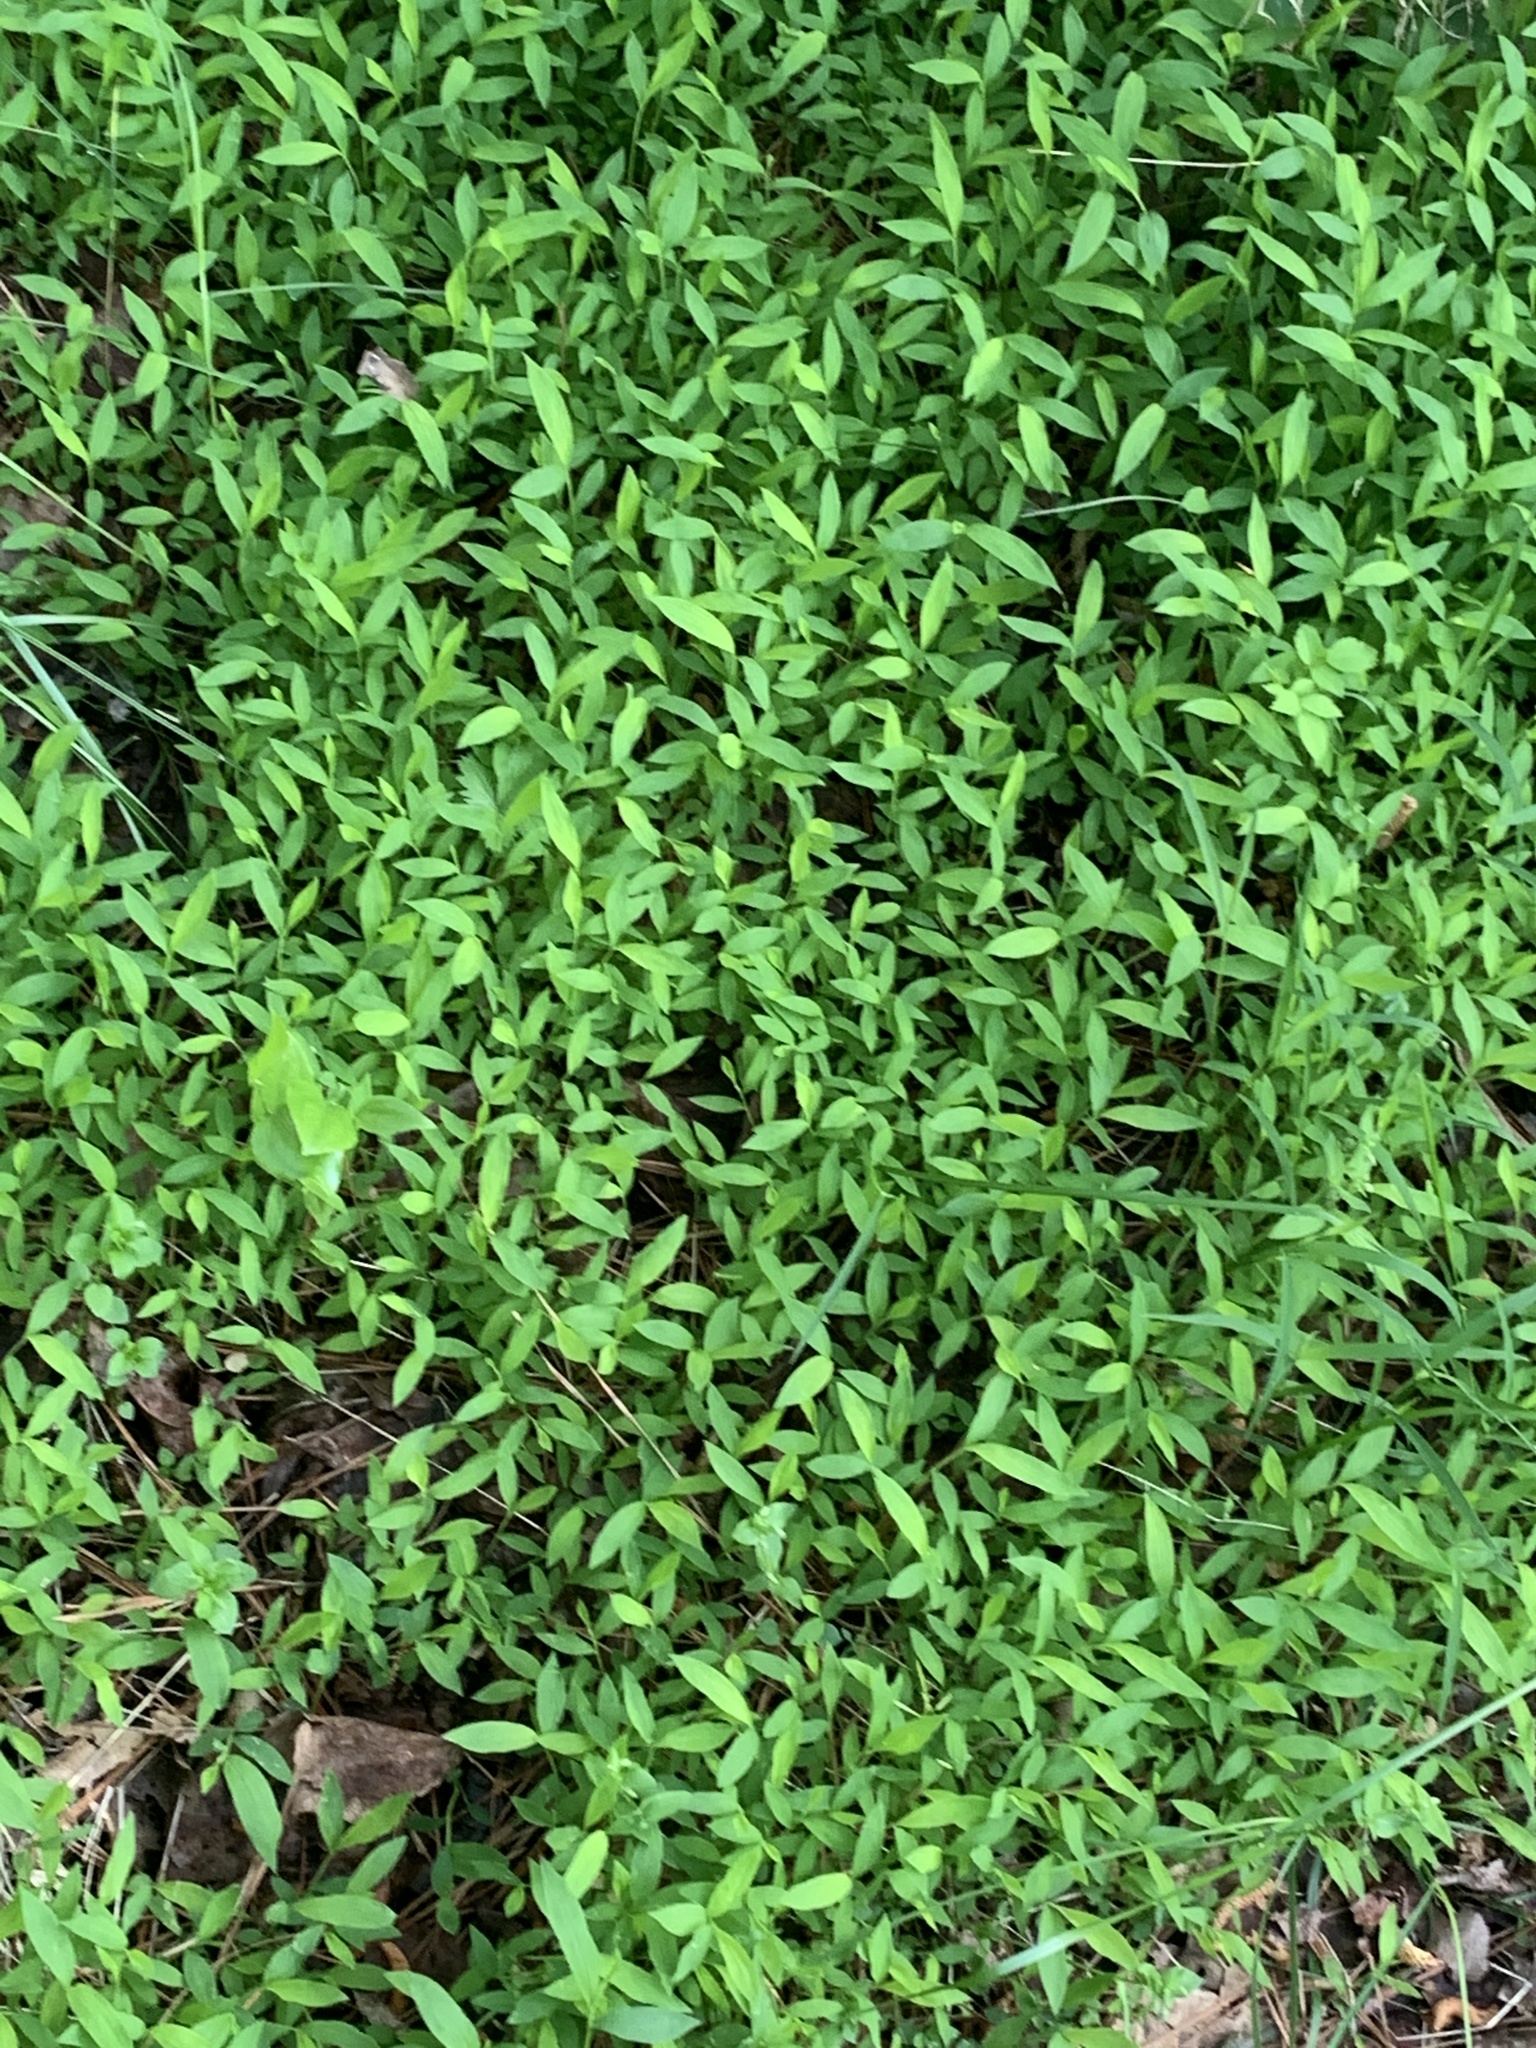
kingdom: Plantae
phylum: Tracheophyta
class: Liliopsida
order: Poales
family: Poaceae
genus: Microstegium
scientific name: Microstegium vimineum
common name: Japanese stiltgrass
